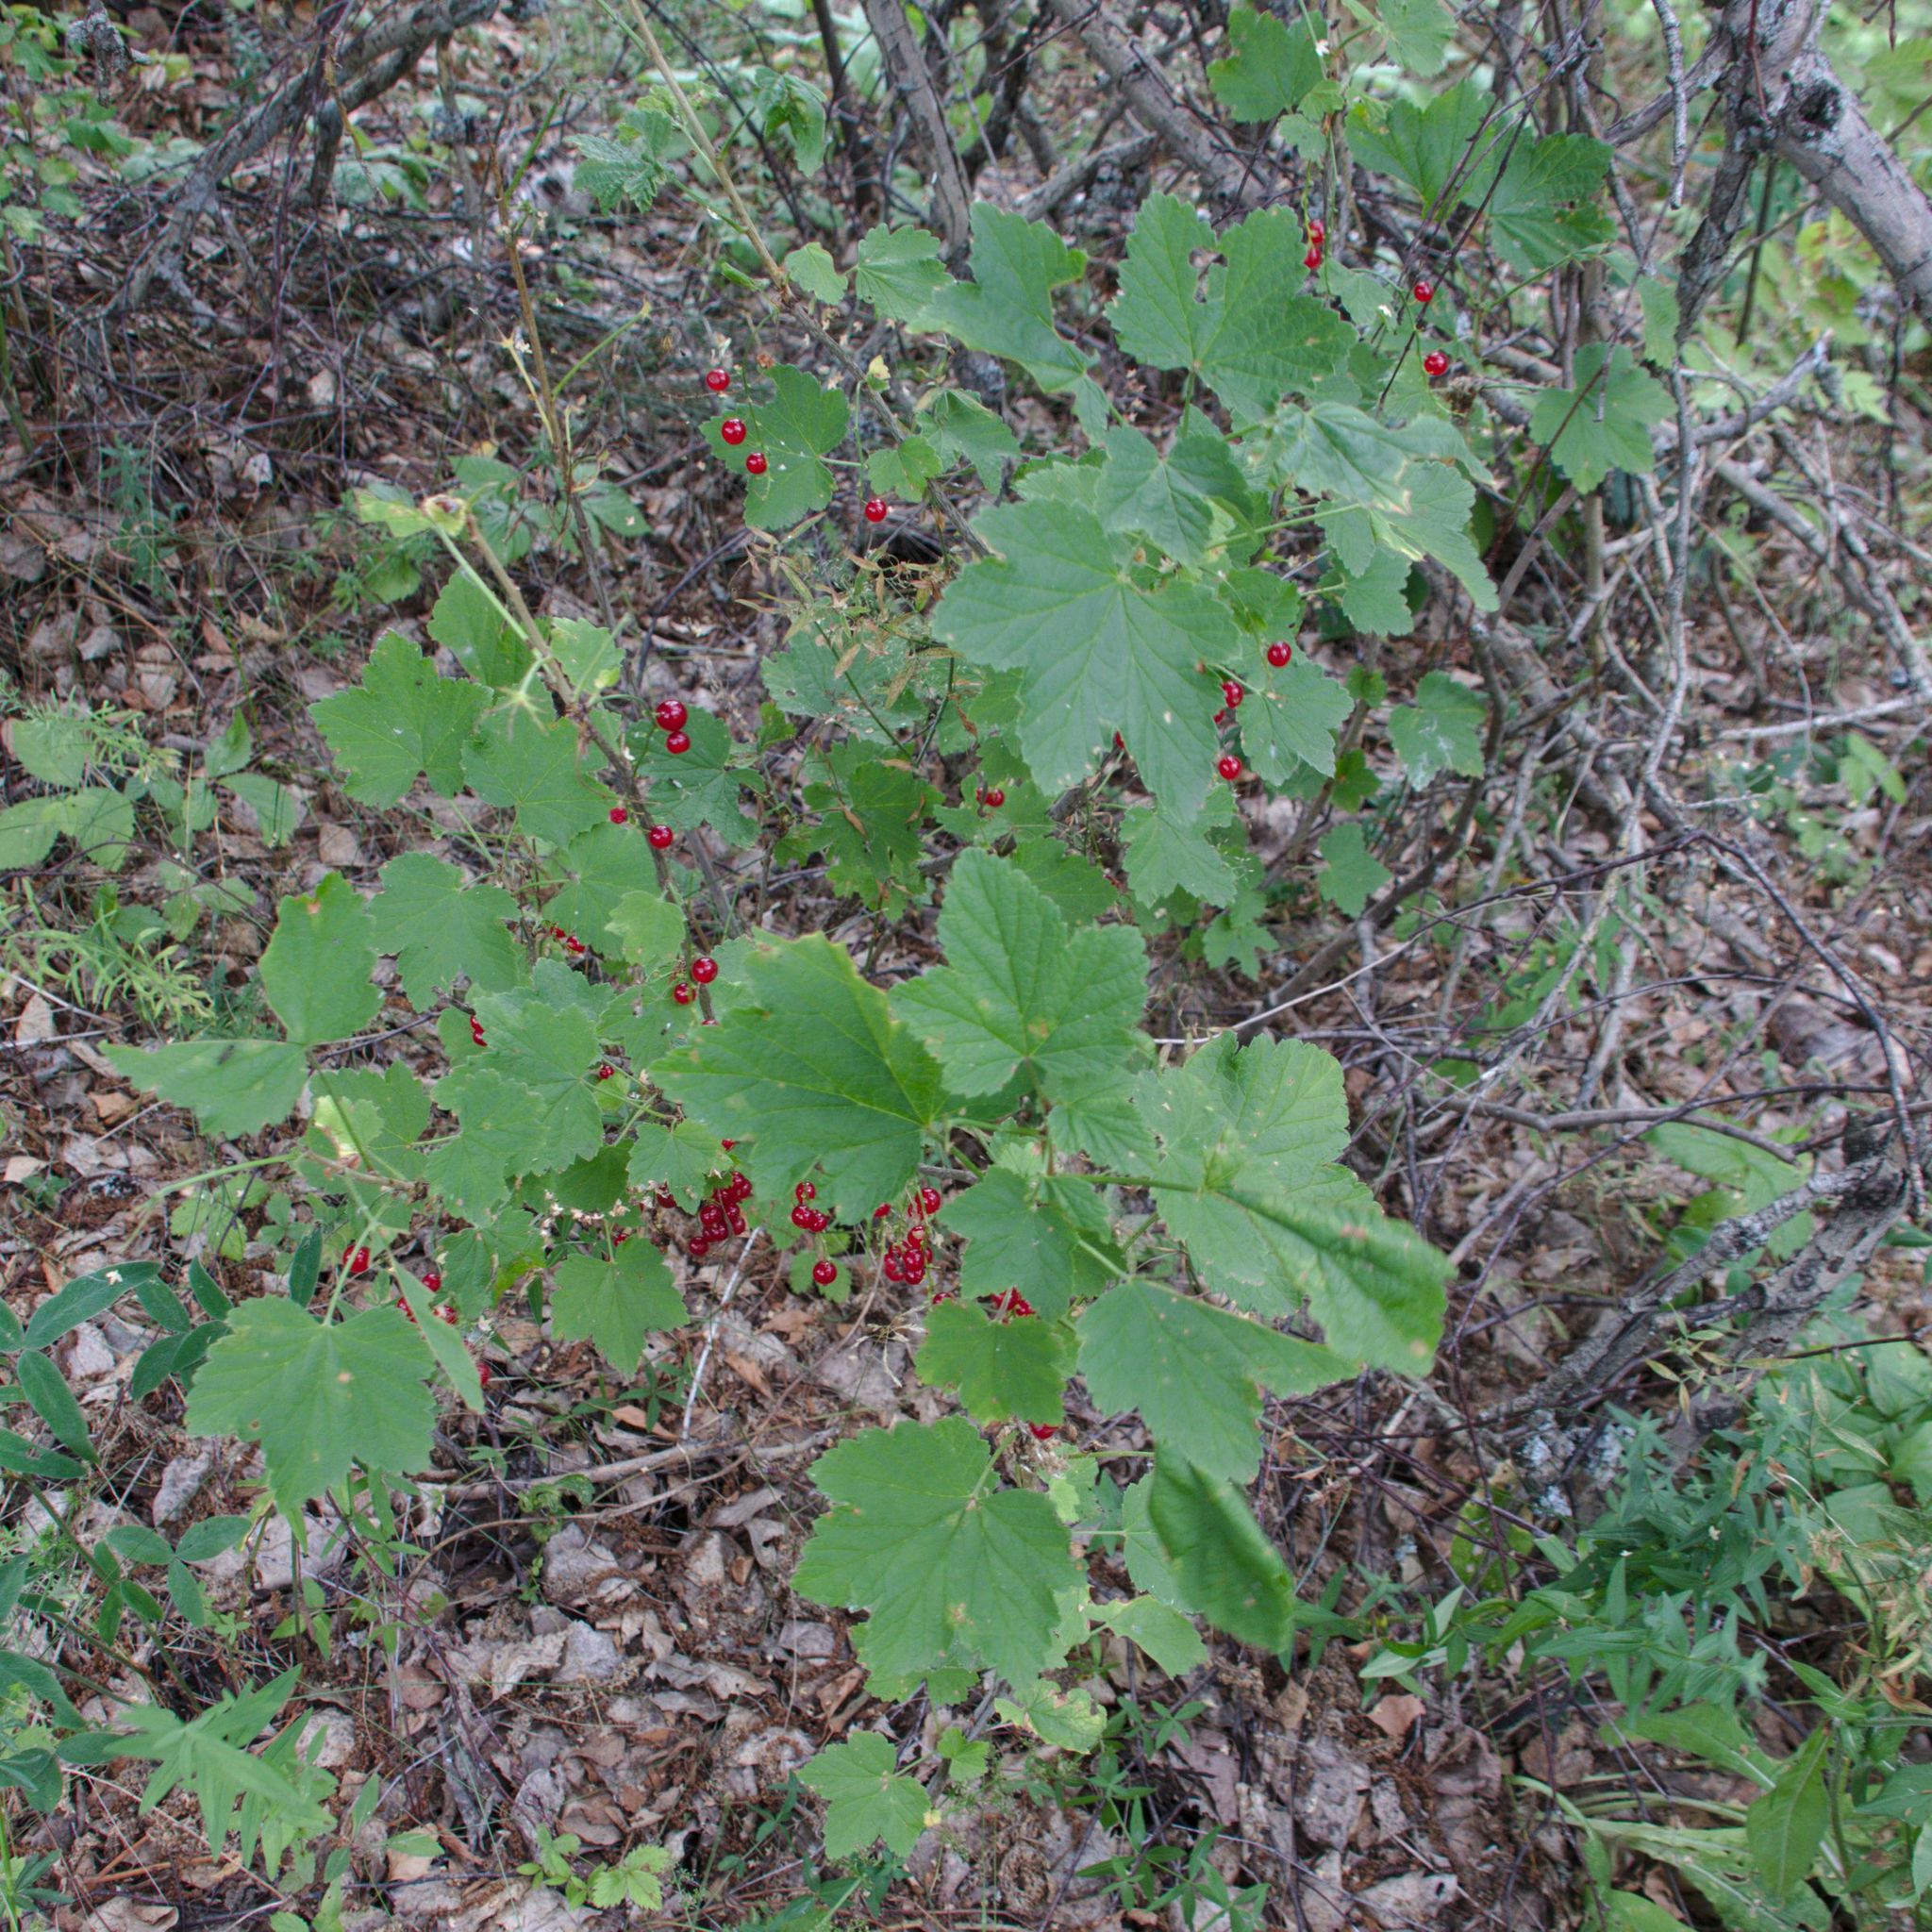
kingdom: Plantae
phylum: Tracheophyta
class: Magnoliopsida
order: Saxifragales
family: Grossulariaceae
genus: Ribes
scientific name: Ribes spicatum
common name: Downy currant
